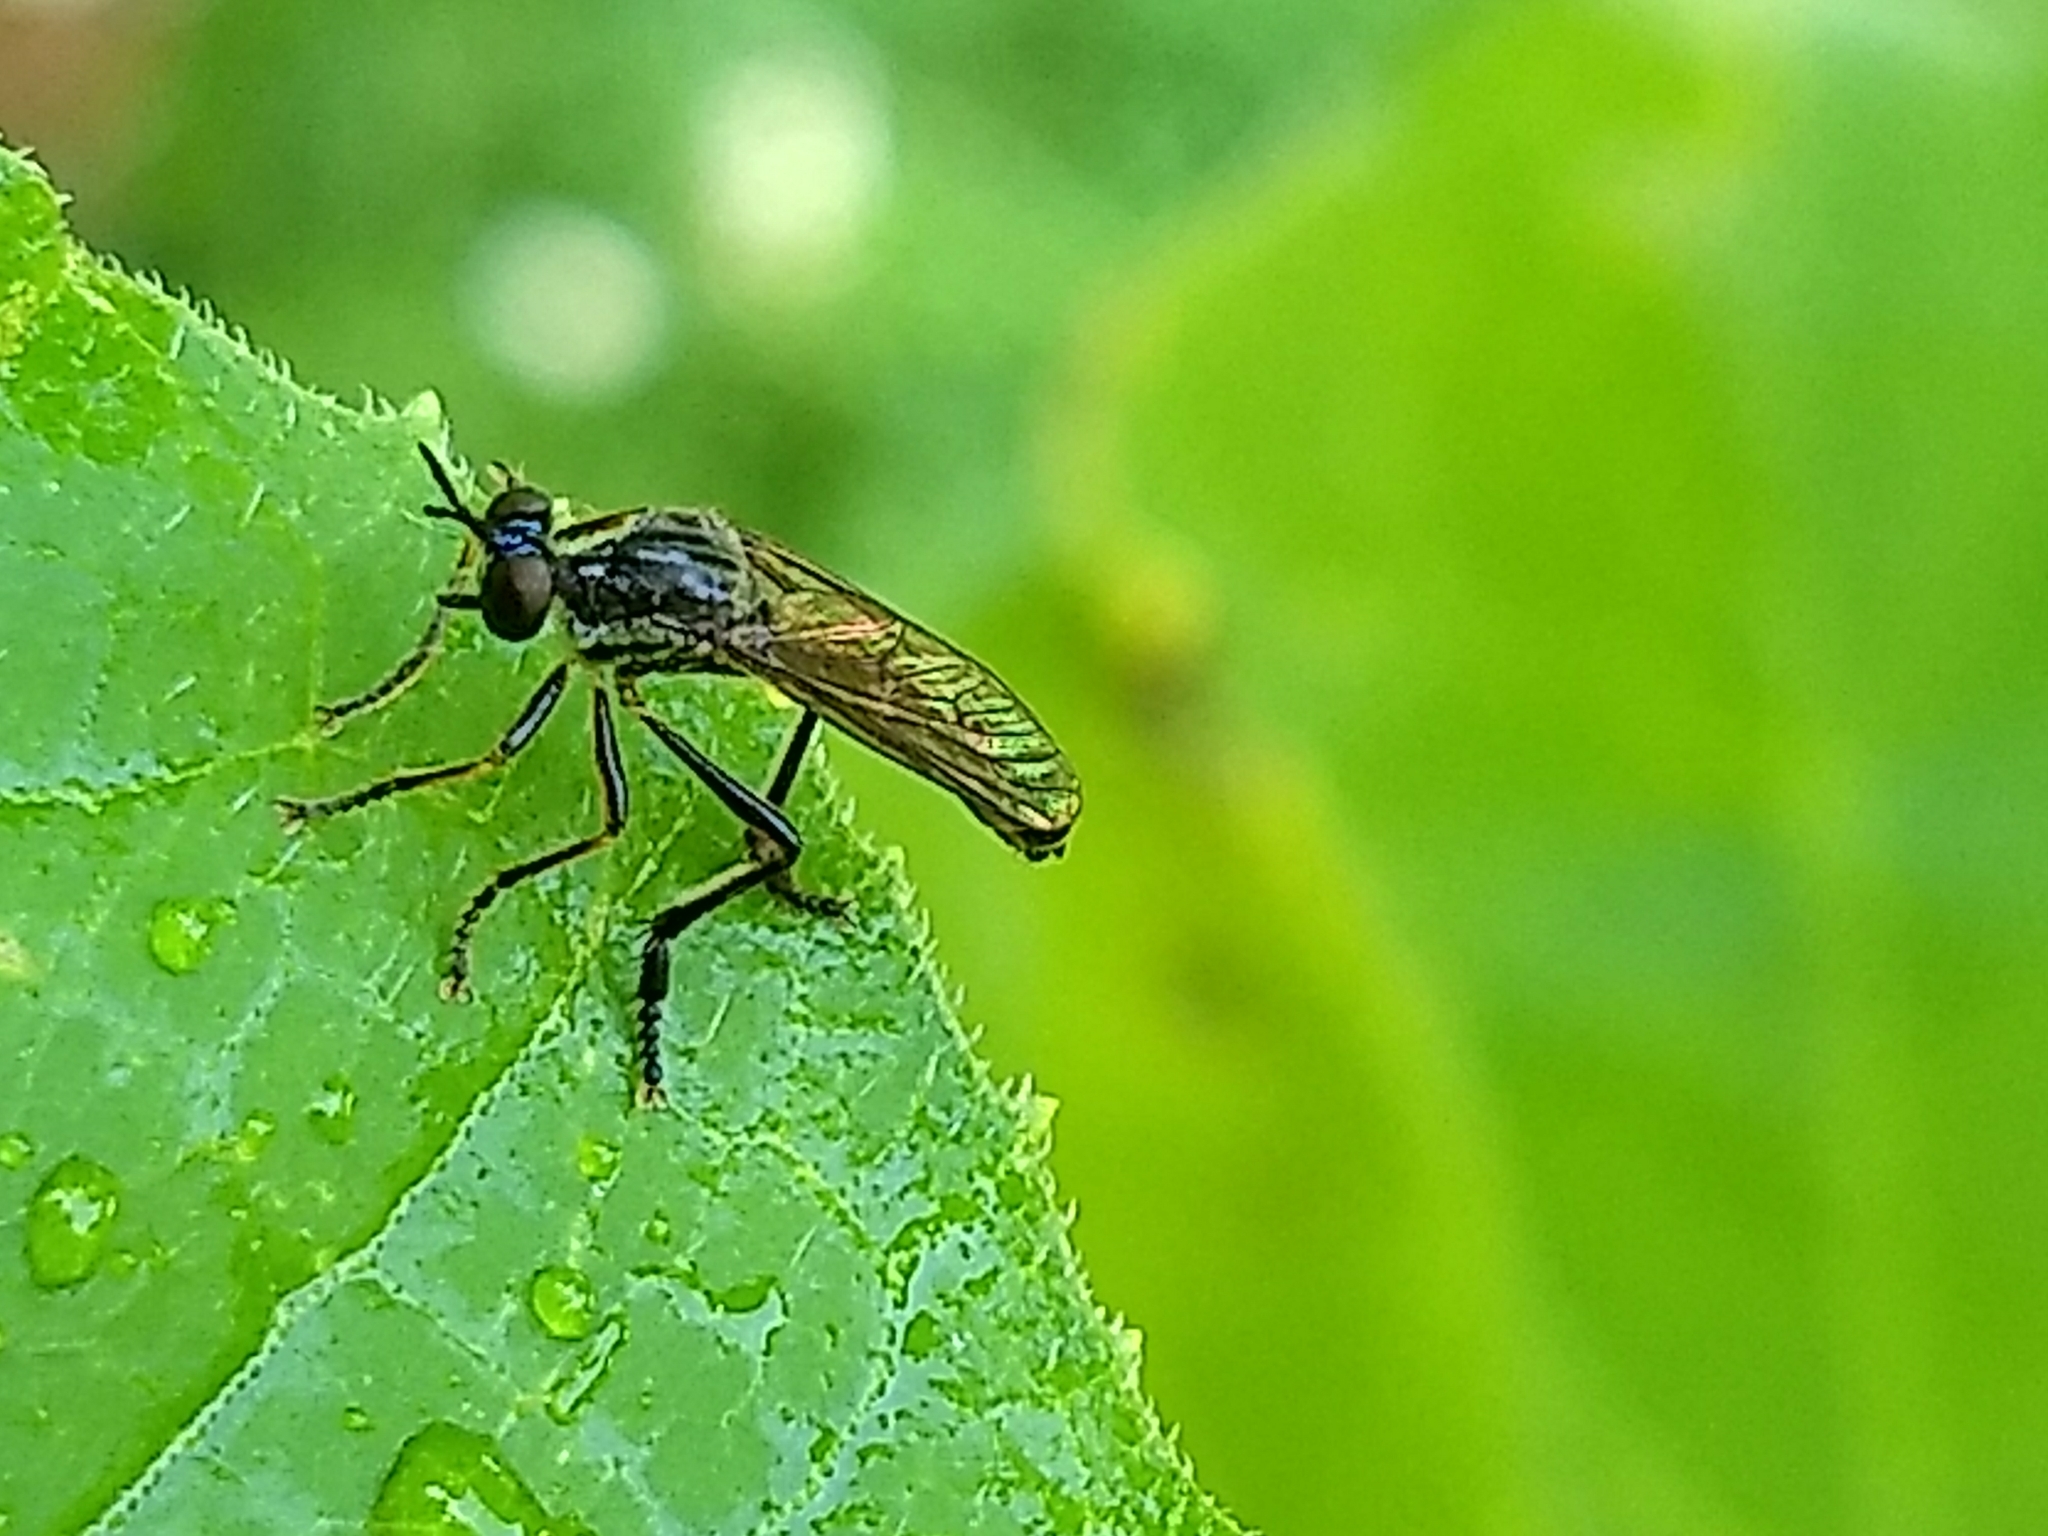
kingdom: Animalia
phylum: Arthropoda
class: Insecta
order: Diptera
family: Asilidae
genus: Dioctria
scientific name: Dioctria hyalipennis
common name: Stripe-legged robberfly
